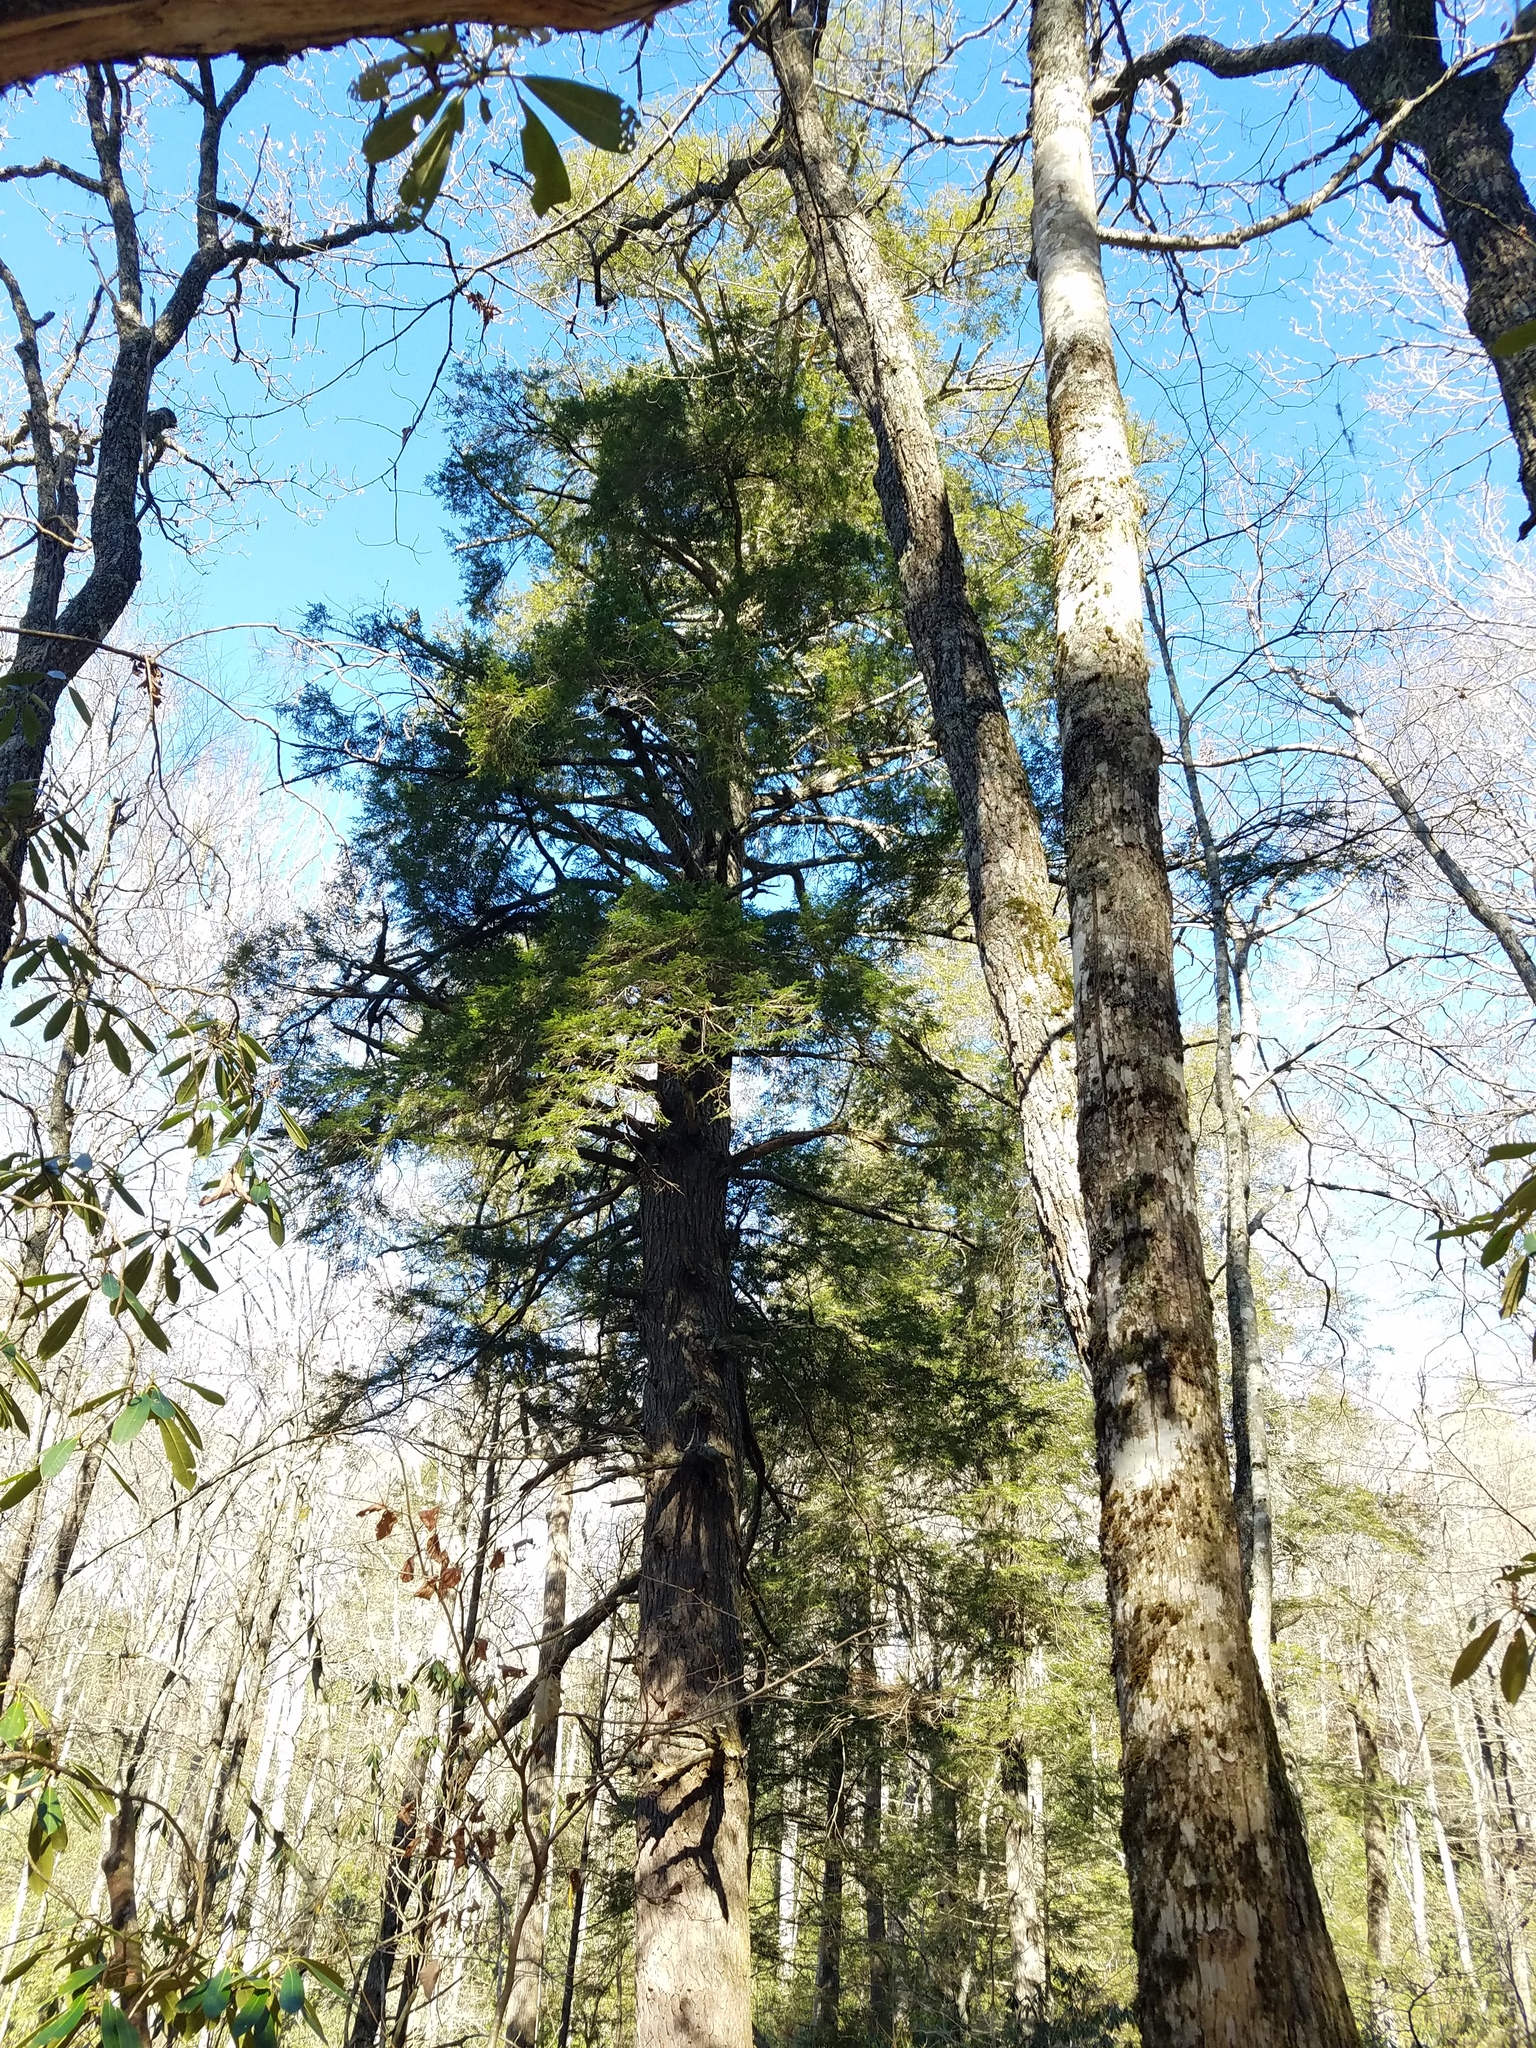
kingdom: Plantae
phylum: Tracheophyta
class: Pinopsida
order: Pinales
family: Pinaceae
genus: Tsuga
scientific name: Tsuga canadensis
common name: Eastern hemlock
